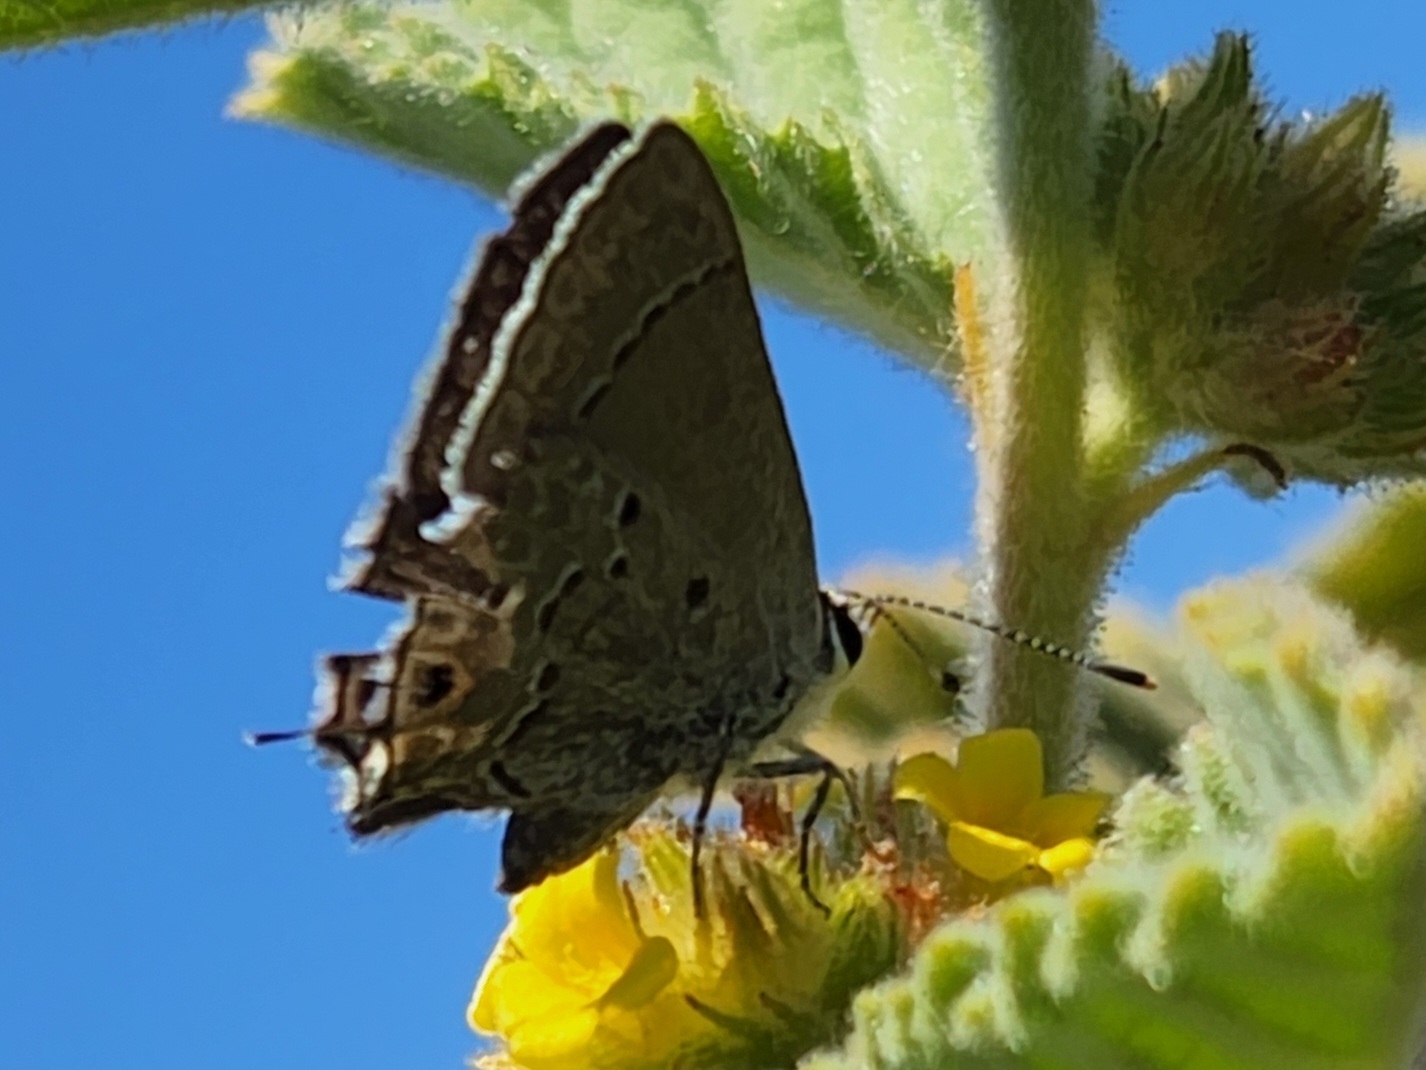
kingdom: Animalia
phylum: Arthropoda
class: Insecta
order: Lepidoptera
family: Lycaenidae
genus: Callicista
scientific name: Callicista columella
